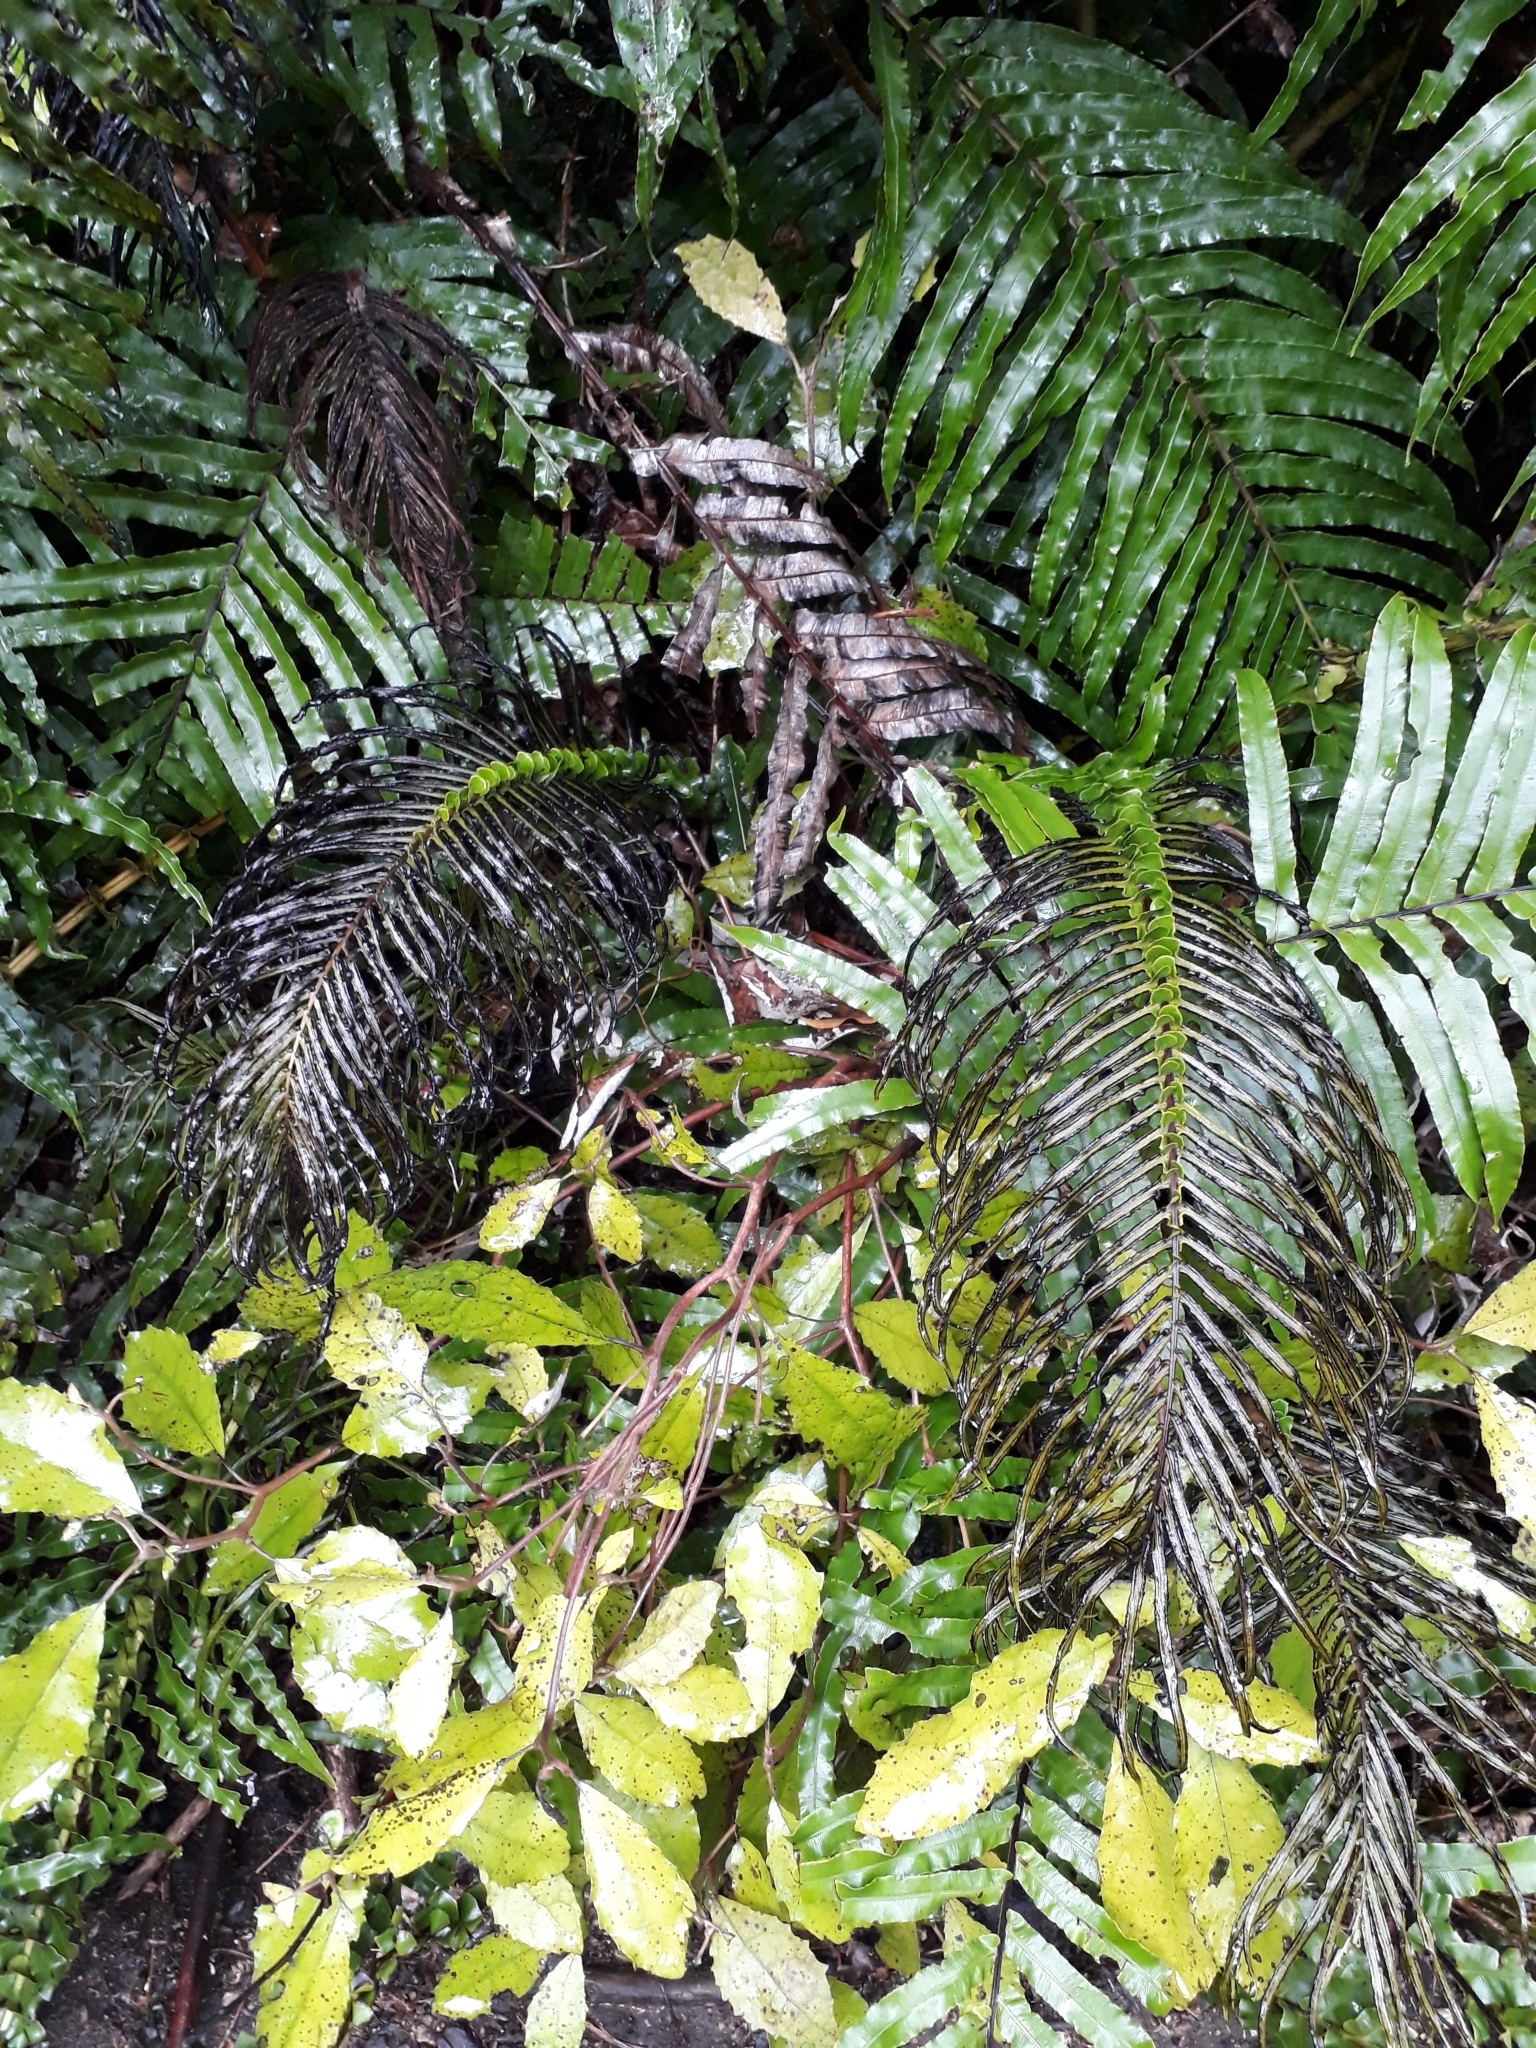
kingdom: Plantae
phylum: Tracheophyta
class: Polypodiopsida
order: Polypodiales
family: Blechnaceae
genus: Parablechnum
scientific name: Parablechnum novae-zelandiae
